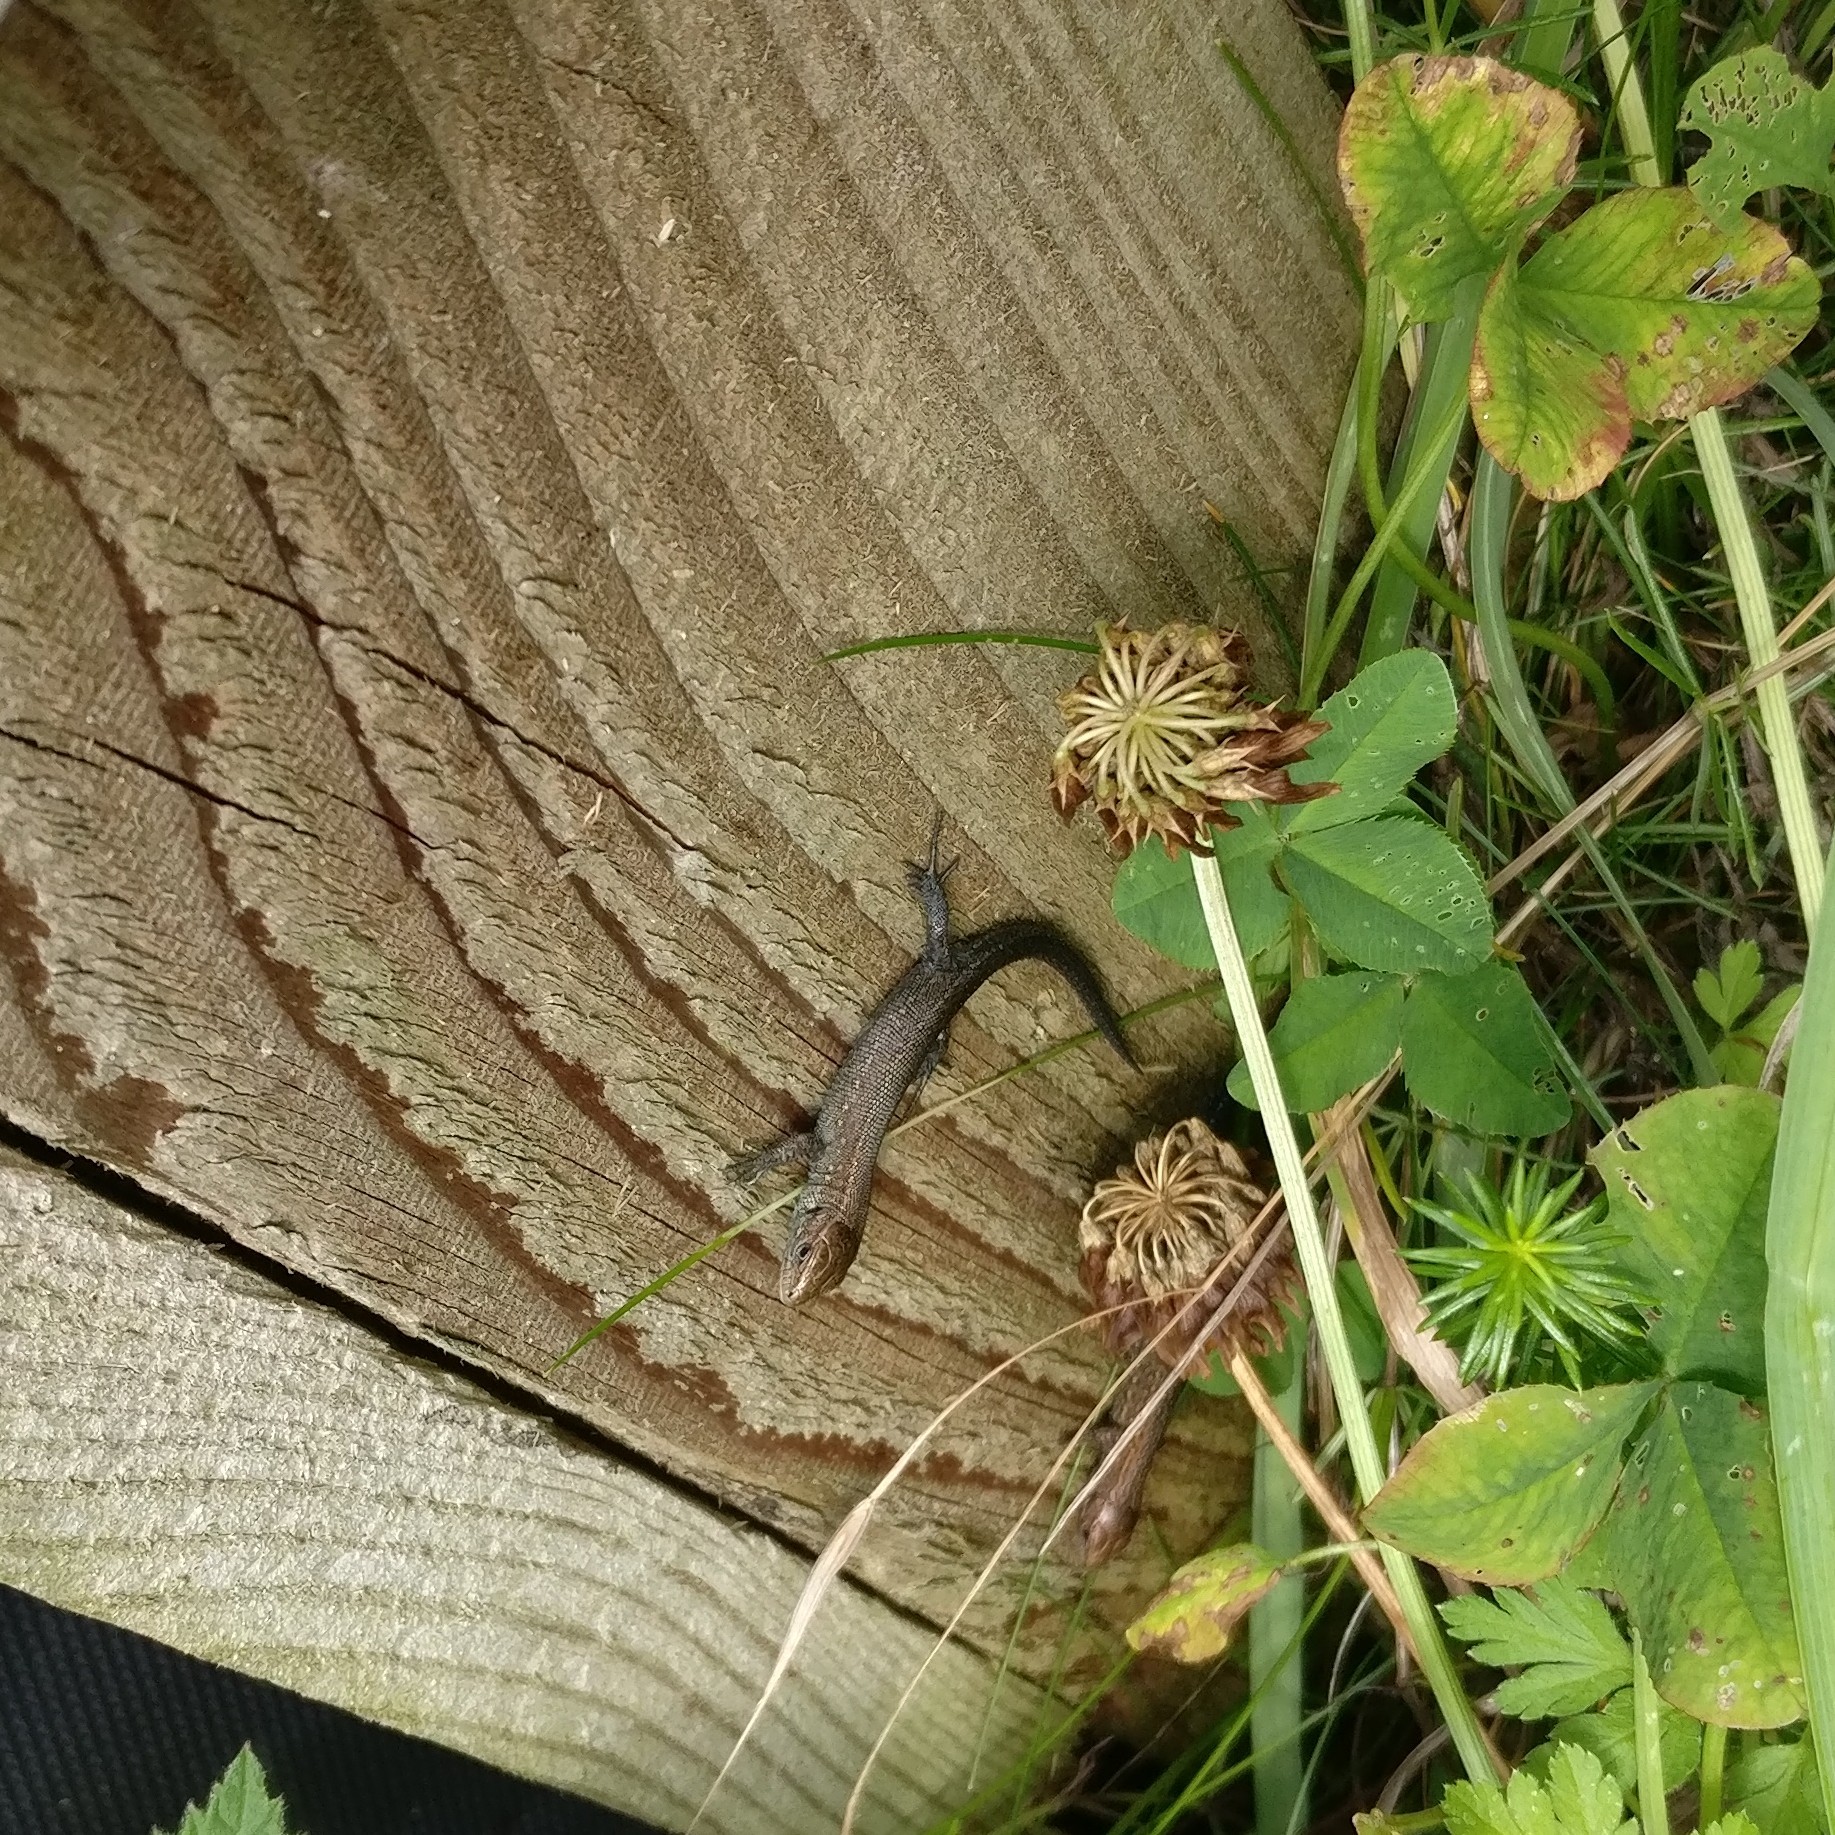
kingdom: Animalia
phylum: Chordata
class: Squamata
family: Lacertidae
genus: Zootoca
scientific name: Zootoca vivipara
